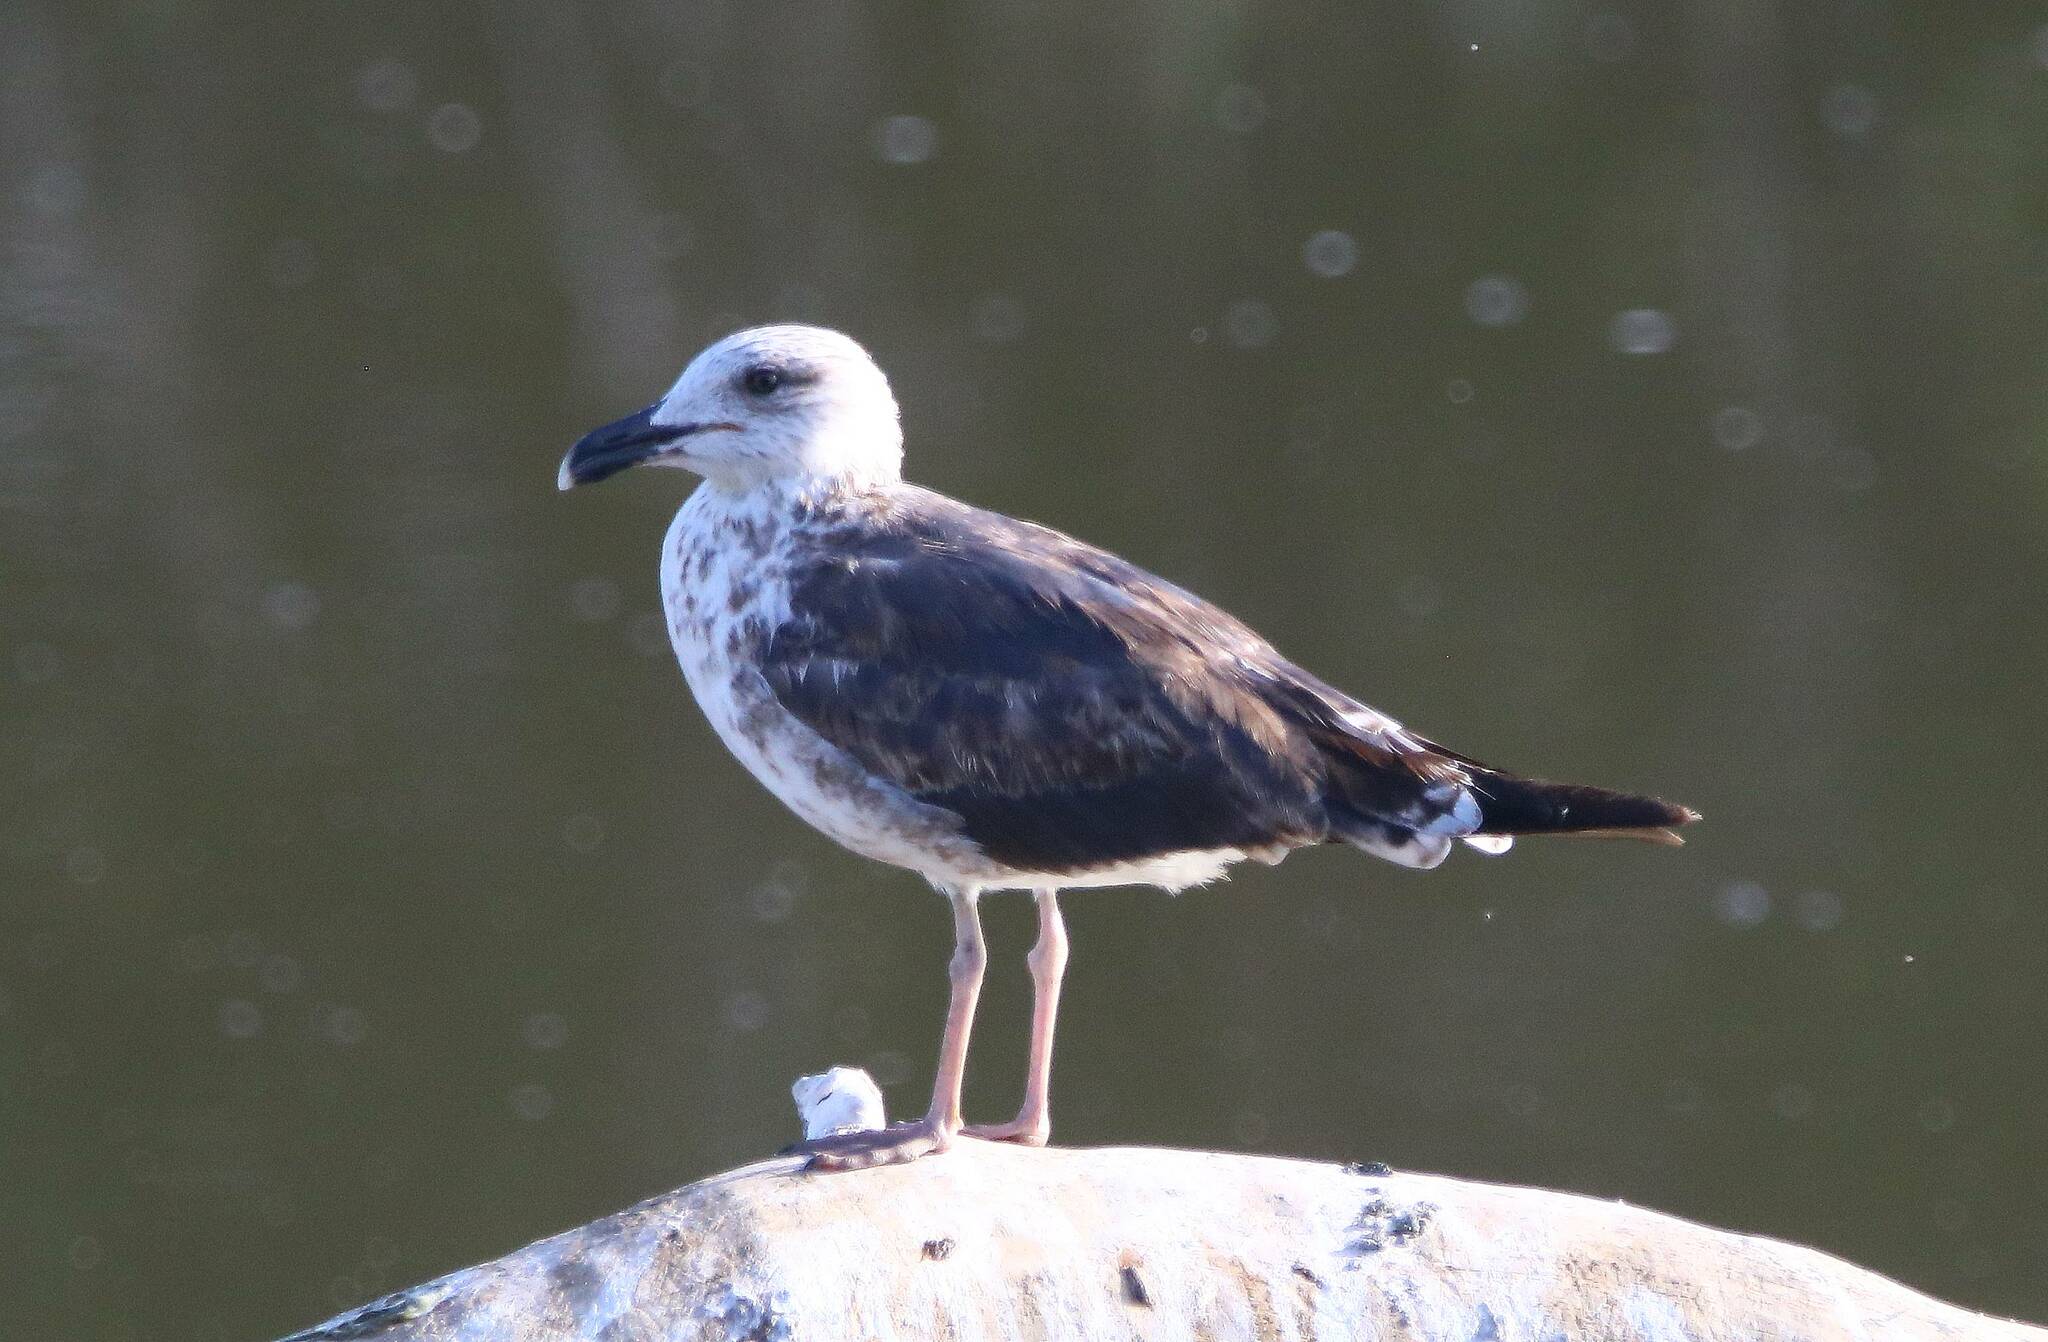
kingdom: Animalia
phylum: Chordata
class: Aves
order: Charadriiformes
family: Laridae
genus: Larus
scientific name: Larus fuscus
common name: Lesser black-backed gull
